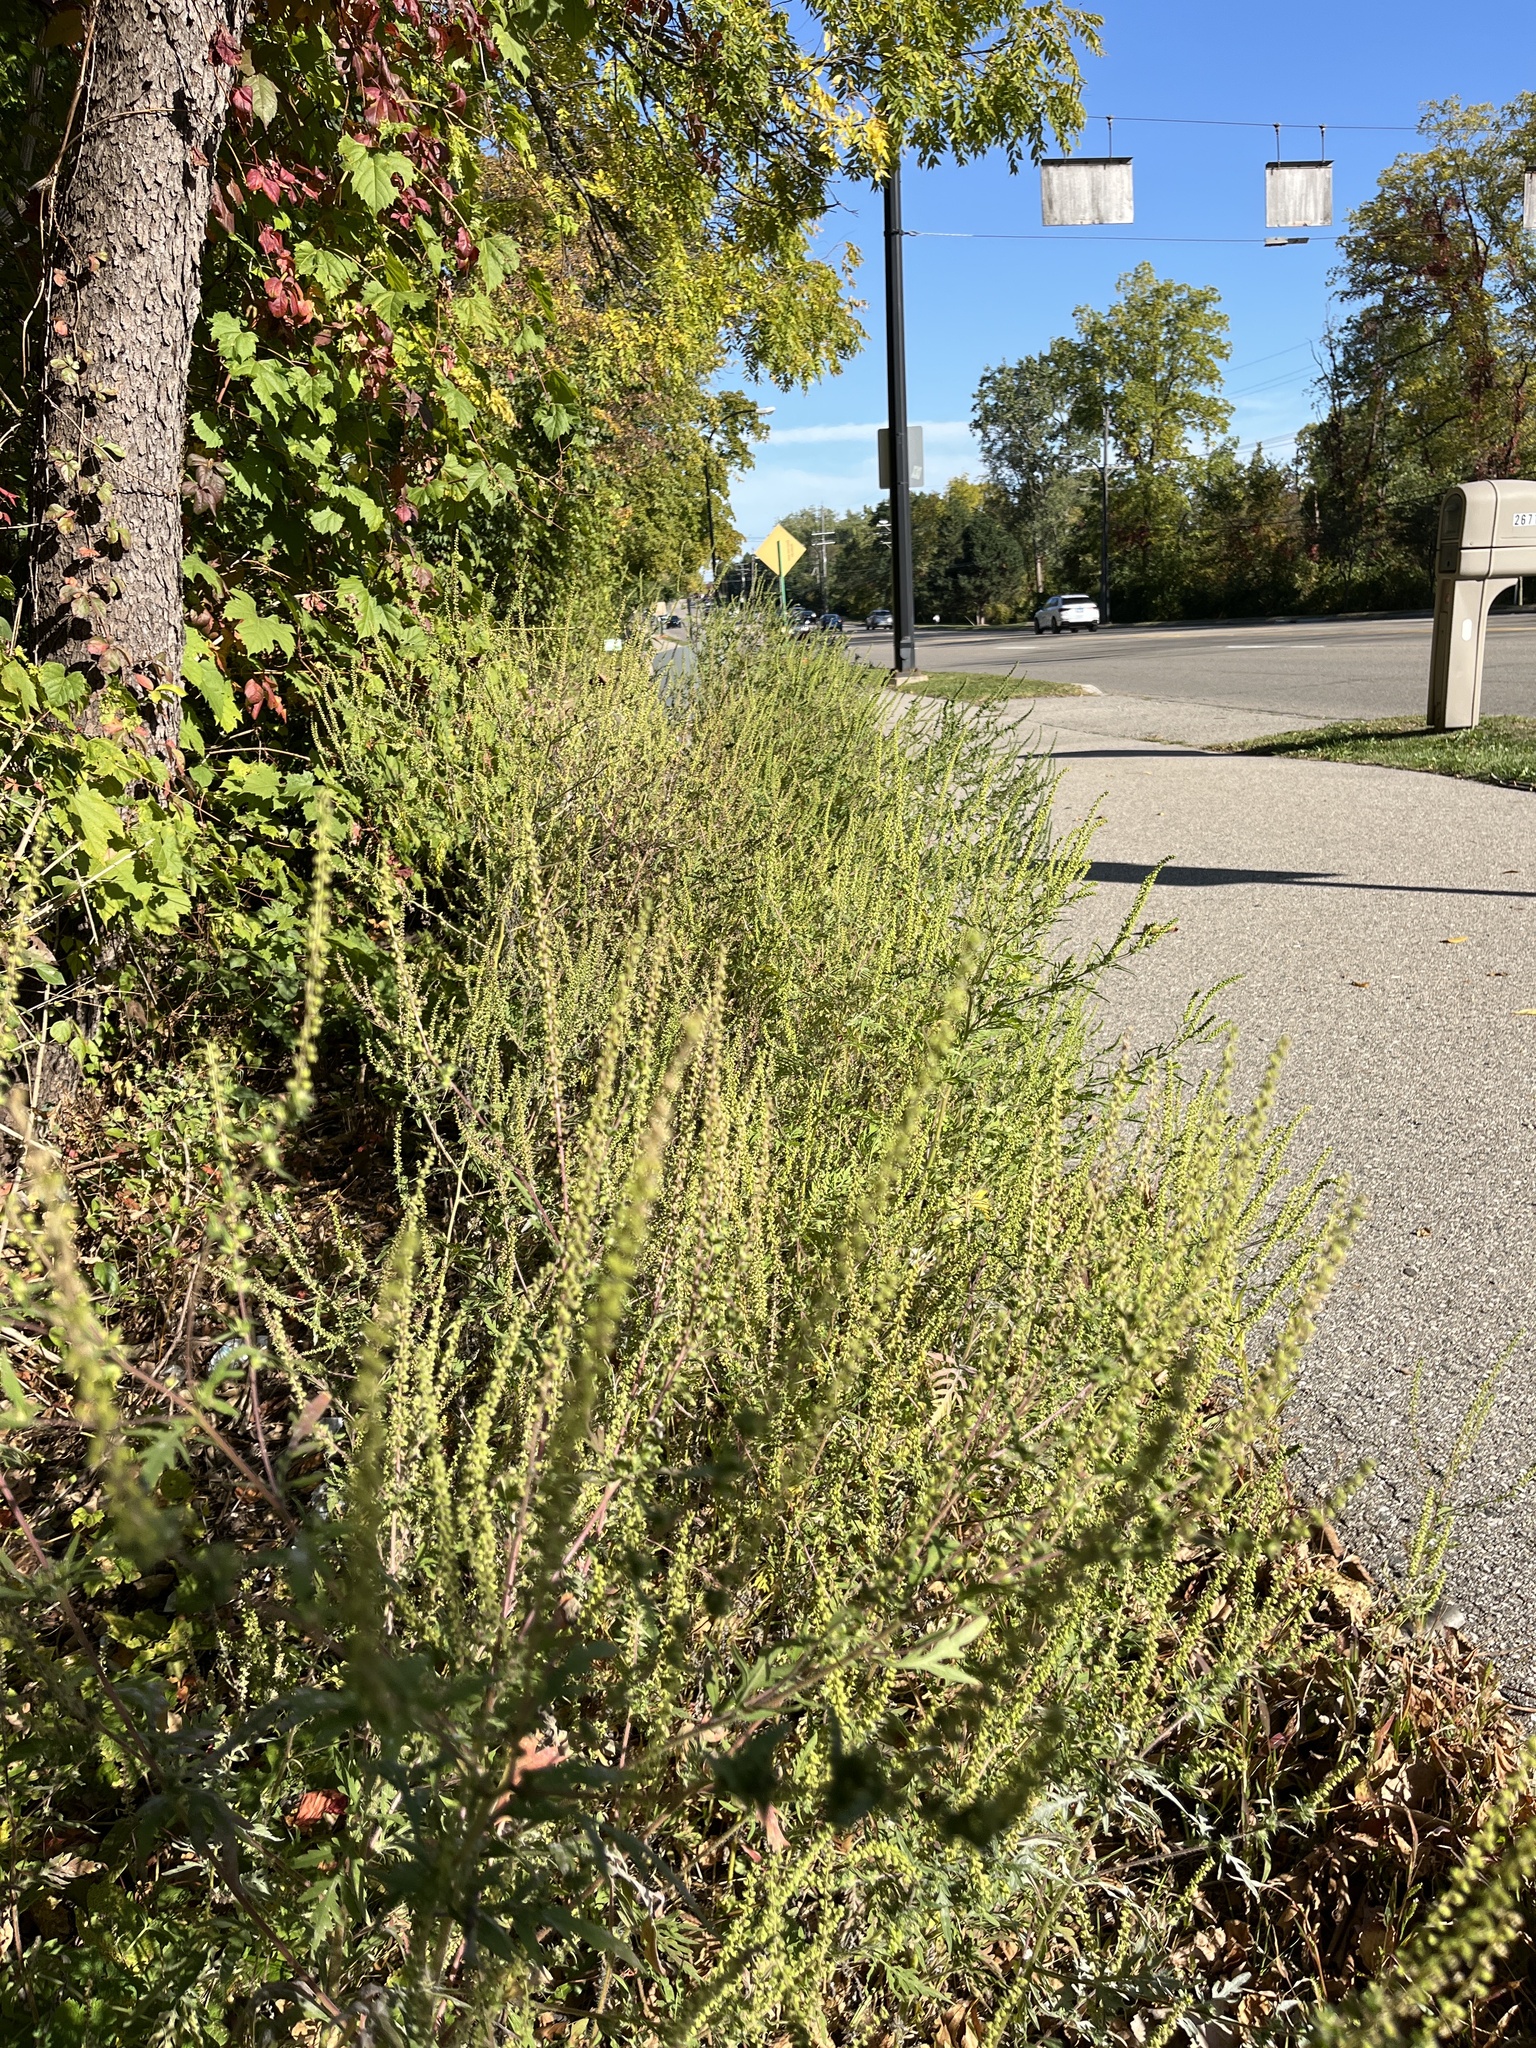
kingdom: Plantae
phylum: Tracheophyta
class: Magnoliopsida
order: Asterales
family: Asteraceae
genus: Ambrosia
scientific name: Ambrosia artemisiifolia
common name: Annual ragweed
